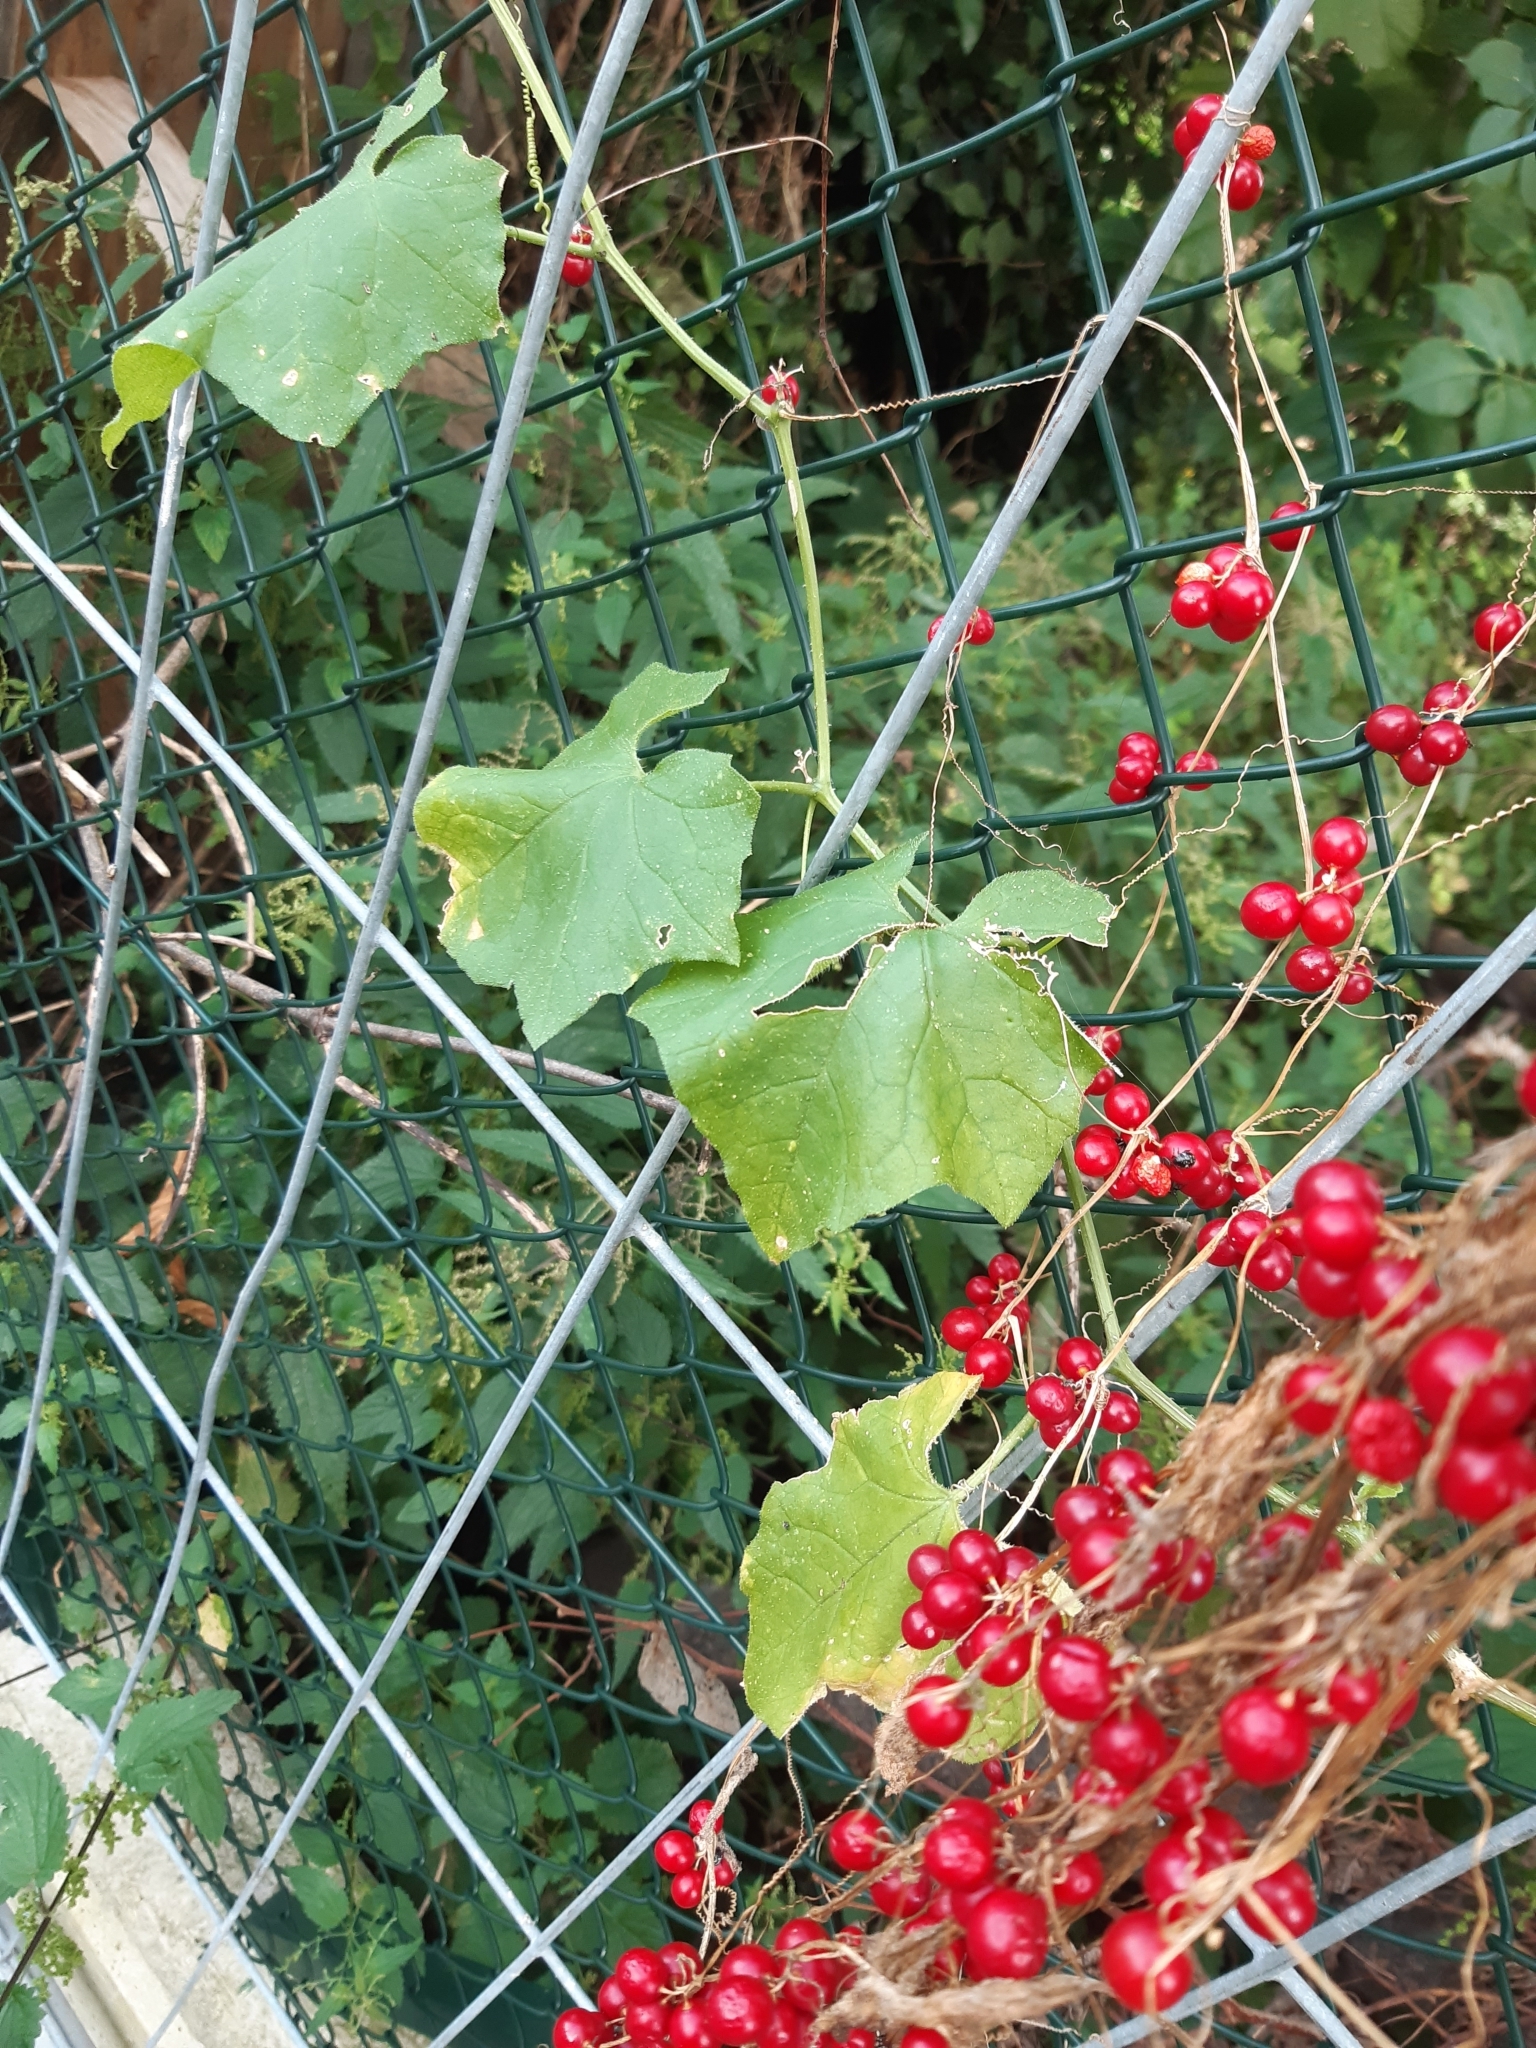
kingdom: Plantae
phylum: Tracheophyta
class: Magnoliopsida
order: Cucurbitales
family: Cucurbitaceae
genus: Bryonia
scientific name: Bryonia dioica
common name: White bryony
